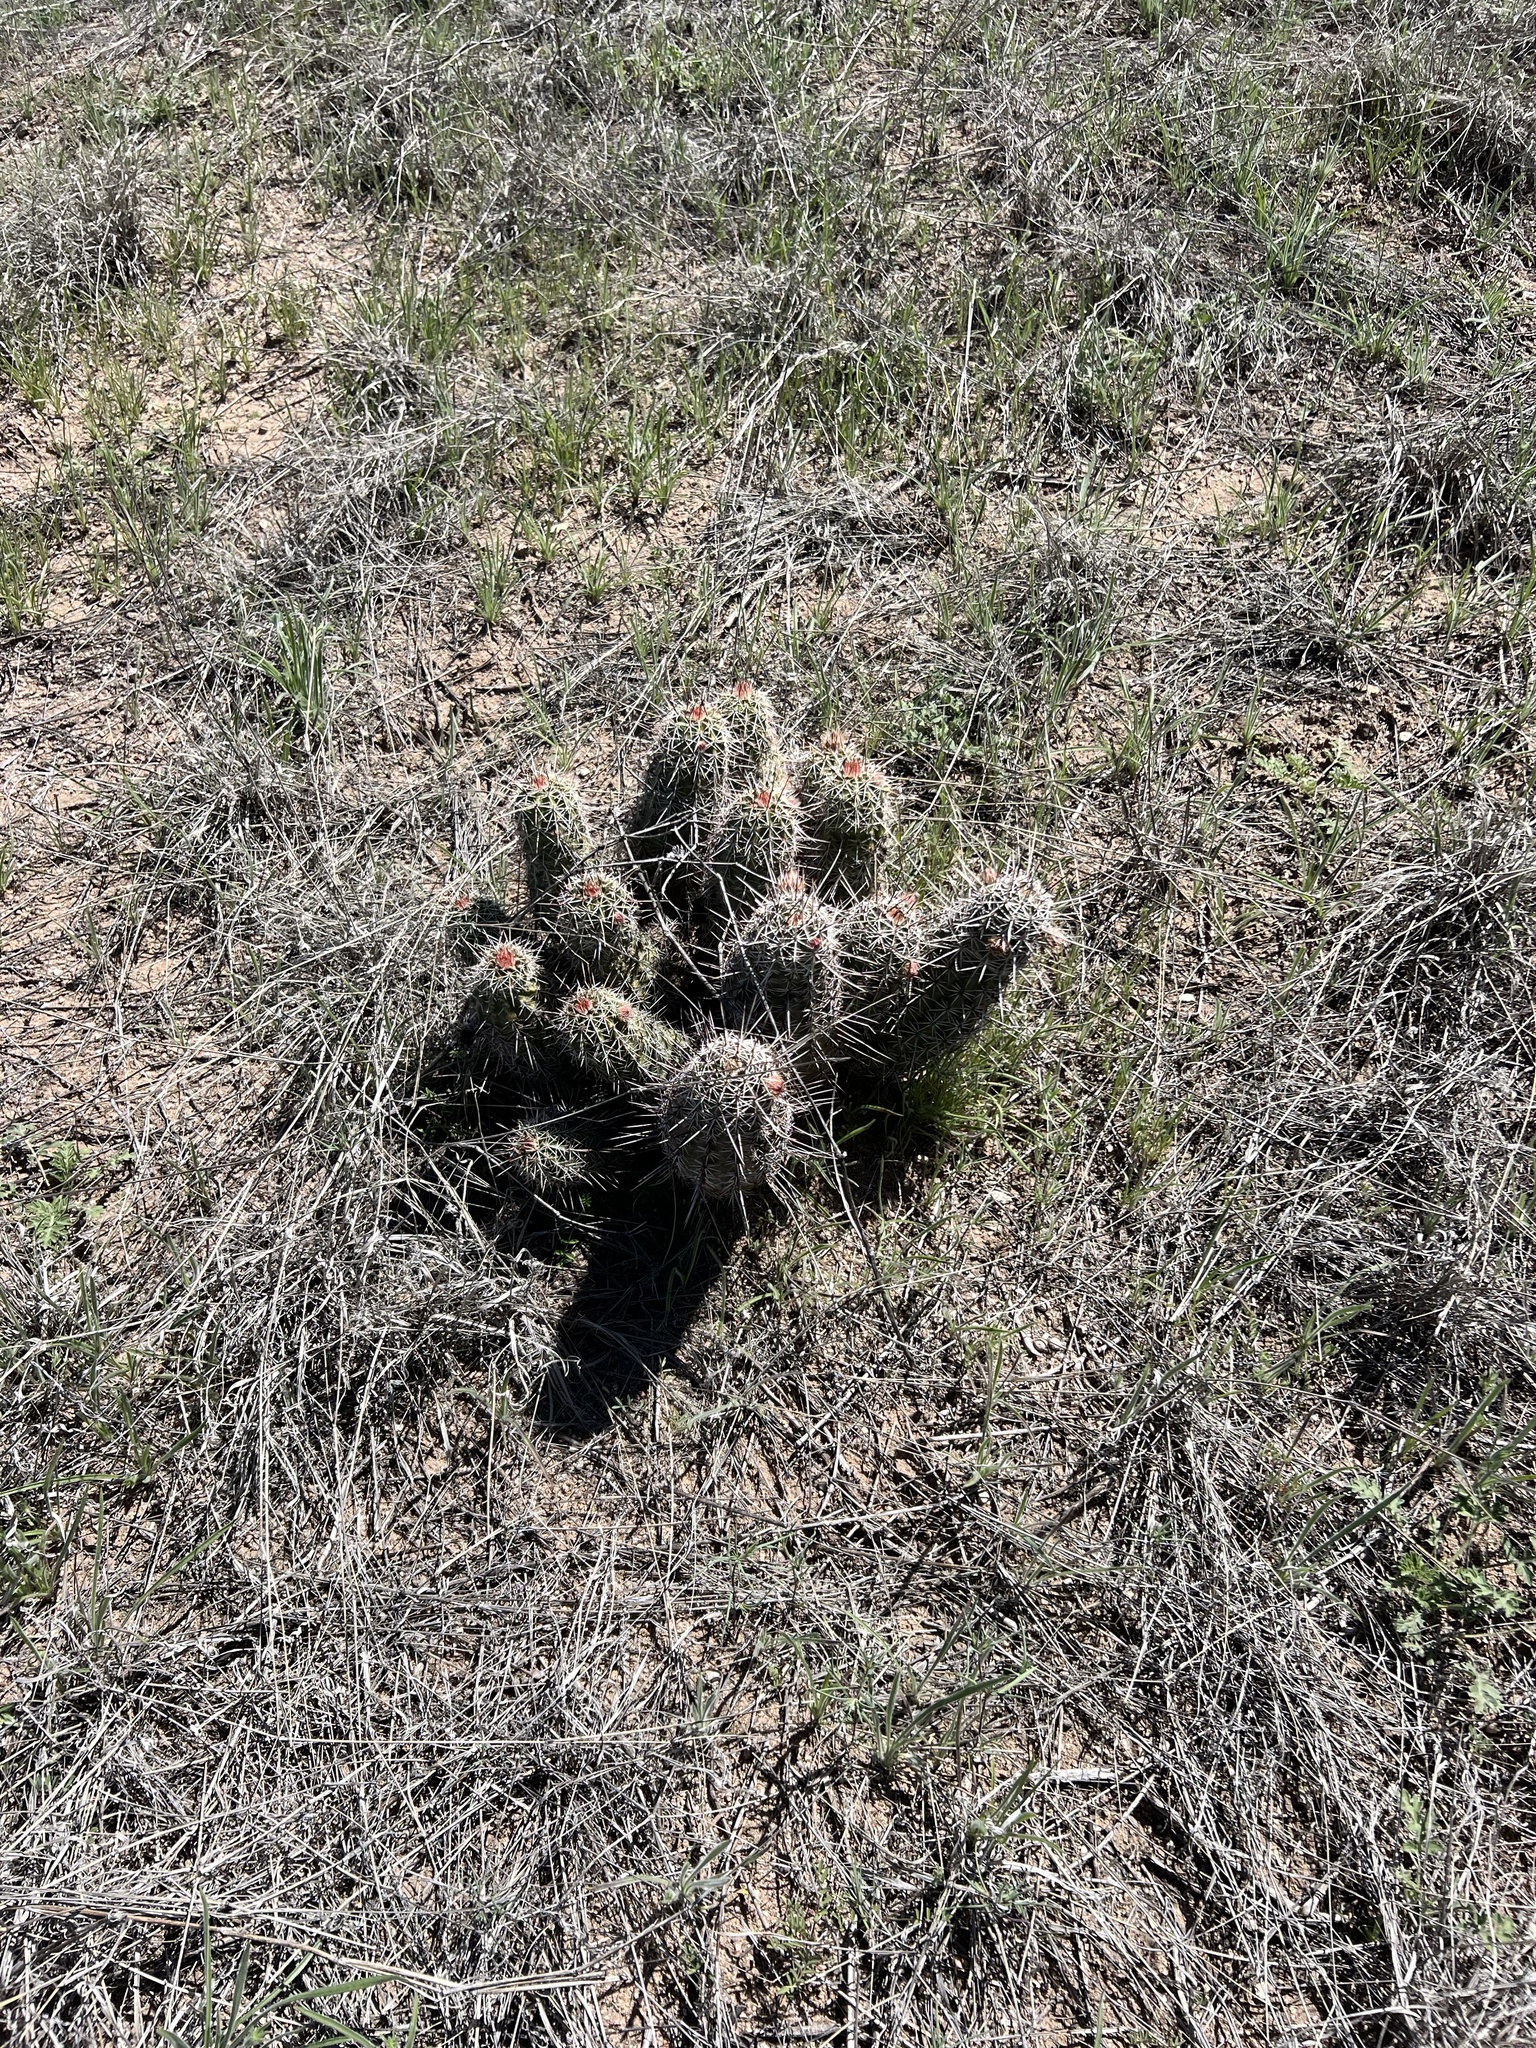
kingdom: Plantae
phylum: Tracheophyta
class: Magnoliopsida
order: Caryophyllales
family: Cactaceae
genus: Echinocereus
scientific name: Echinocereus fasciculatus
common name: Bundle hedgehog
